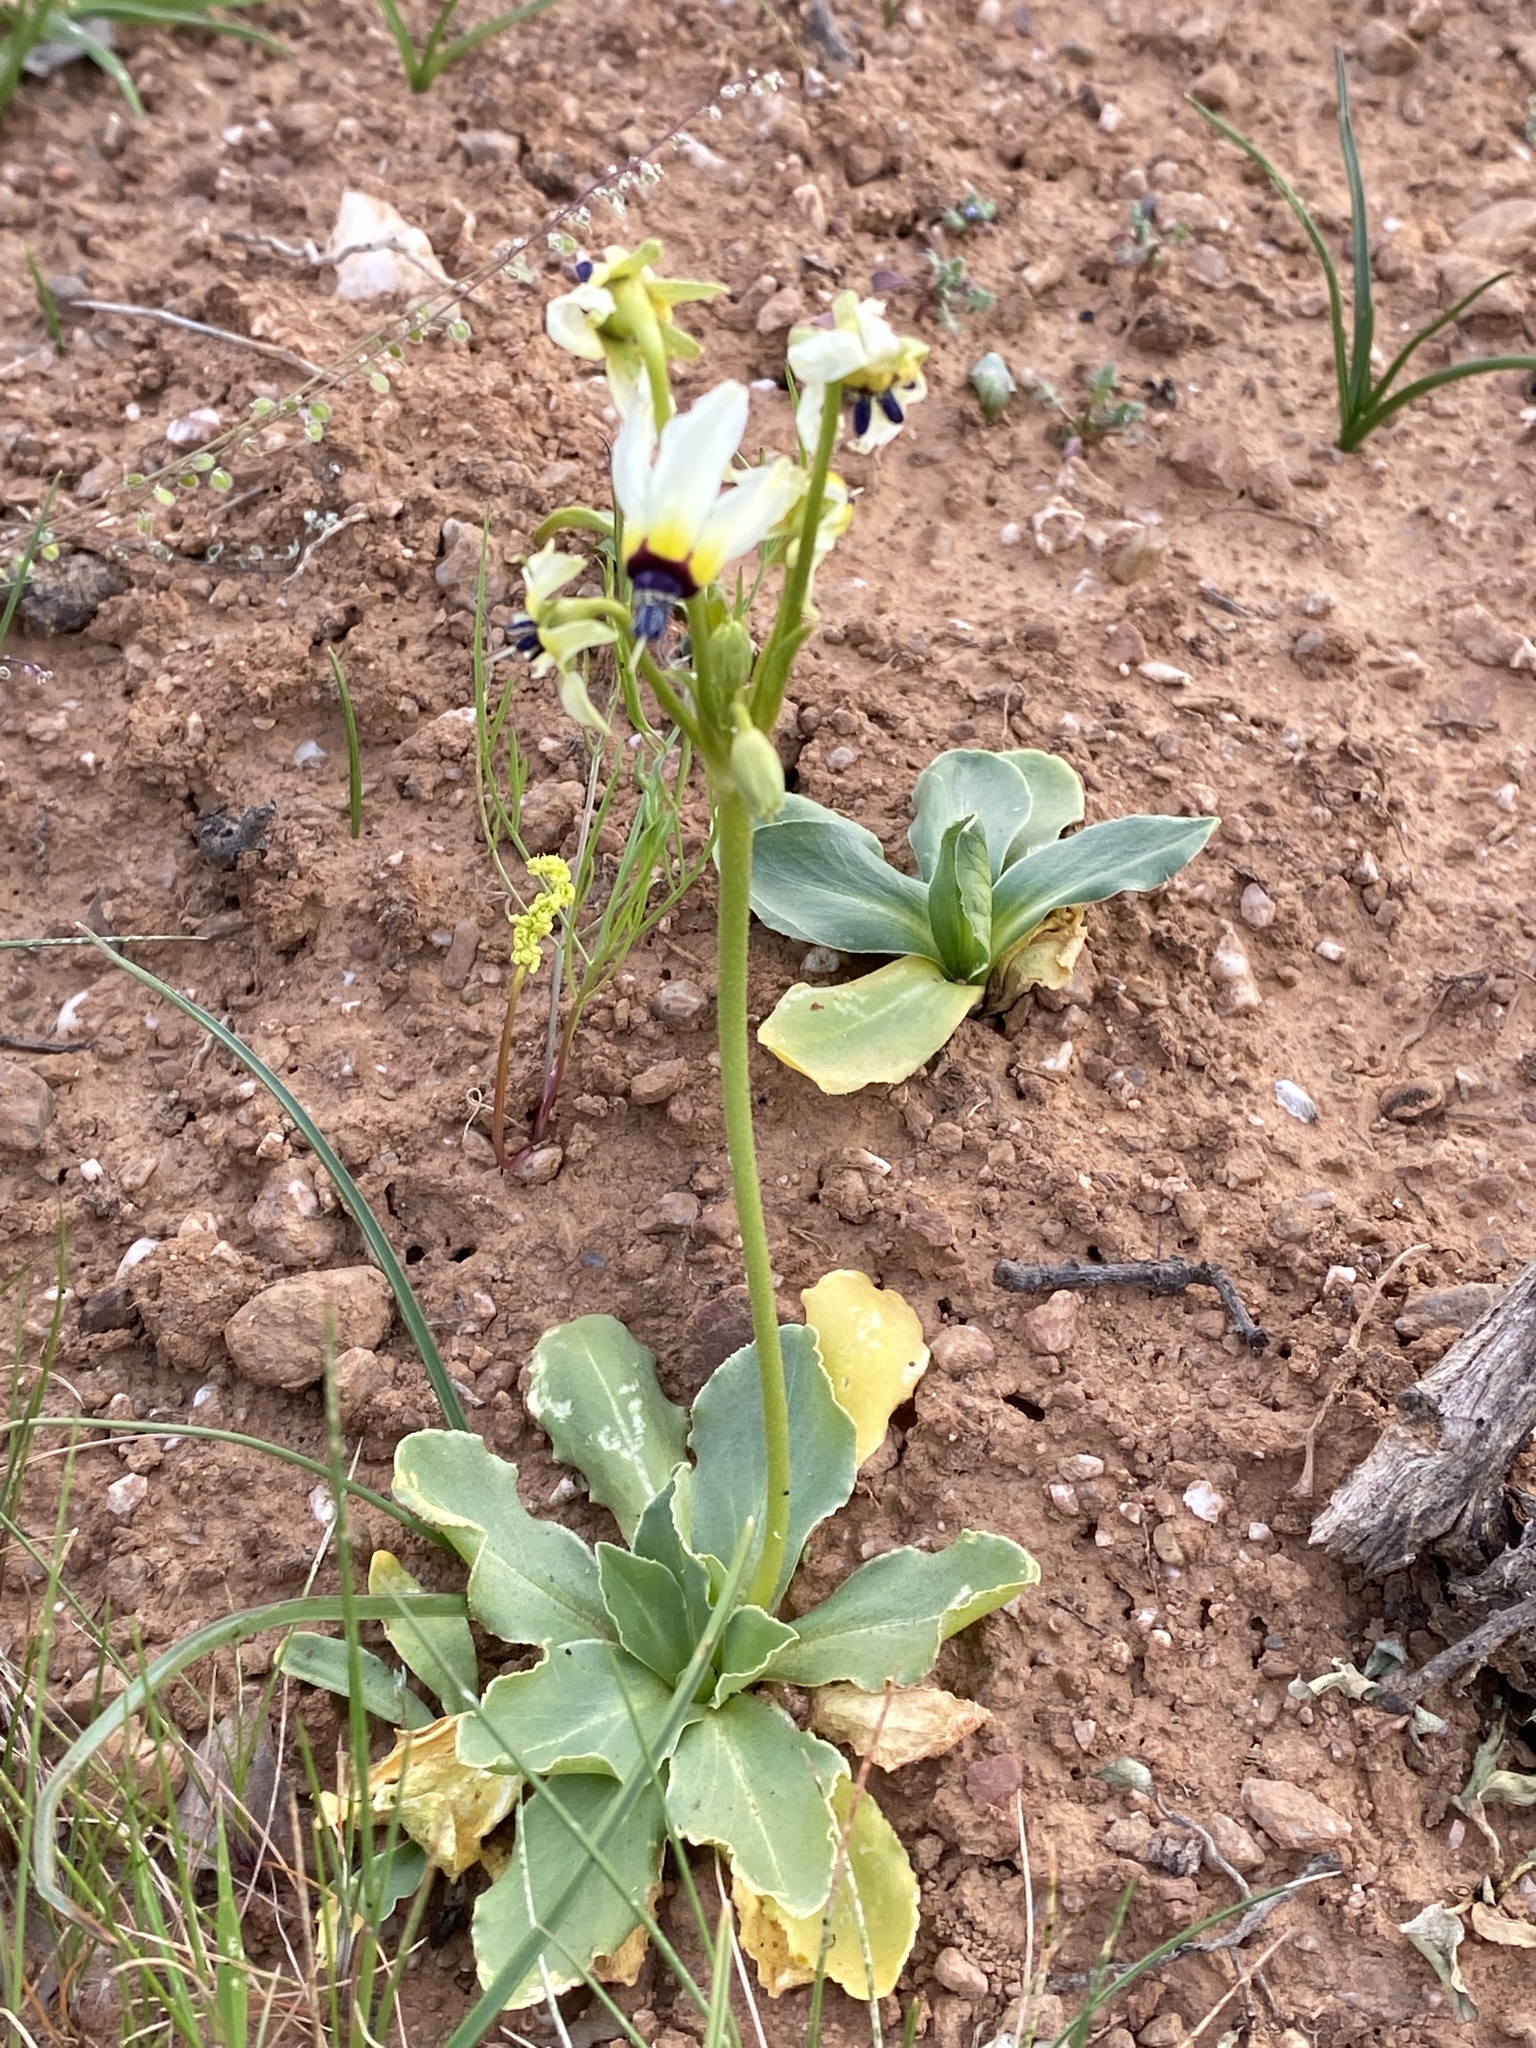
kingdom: Plantae
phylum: Tracheophyta
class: Magnoliopsida
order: Ericales
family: Primulaceae
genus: Dodecatheon
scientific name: Dodecatheon clevelandii
